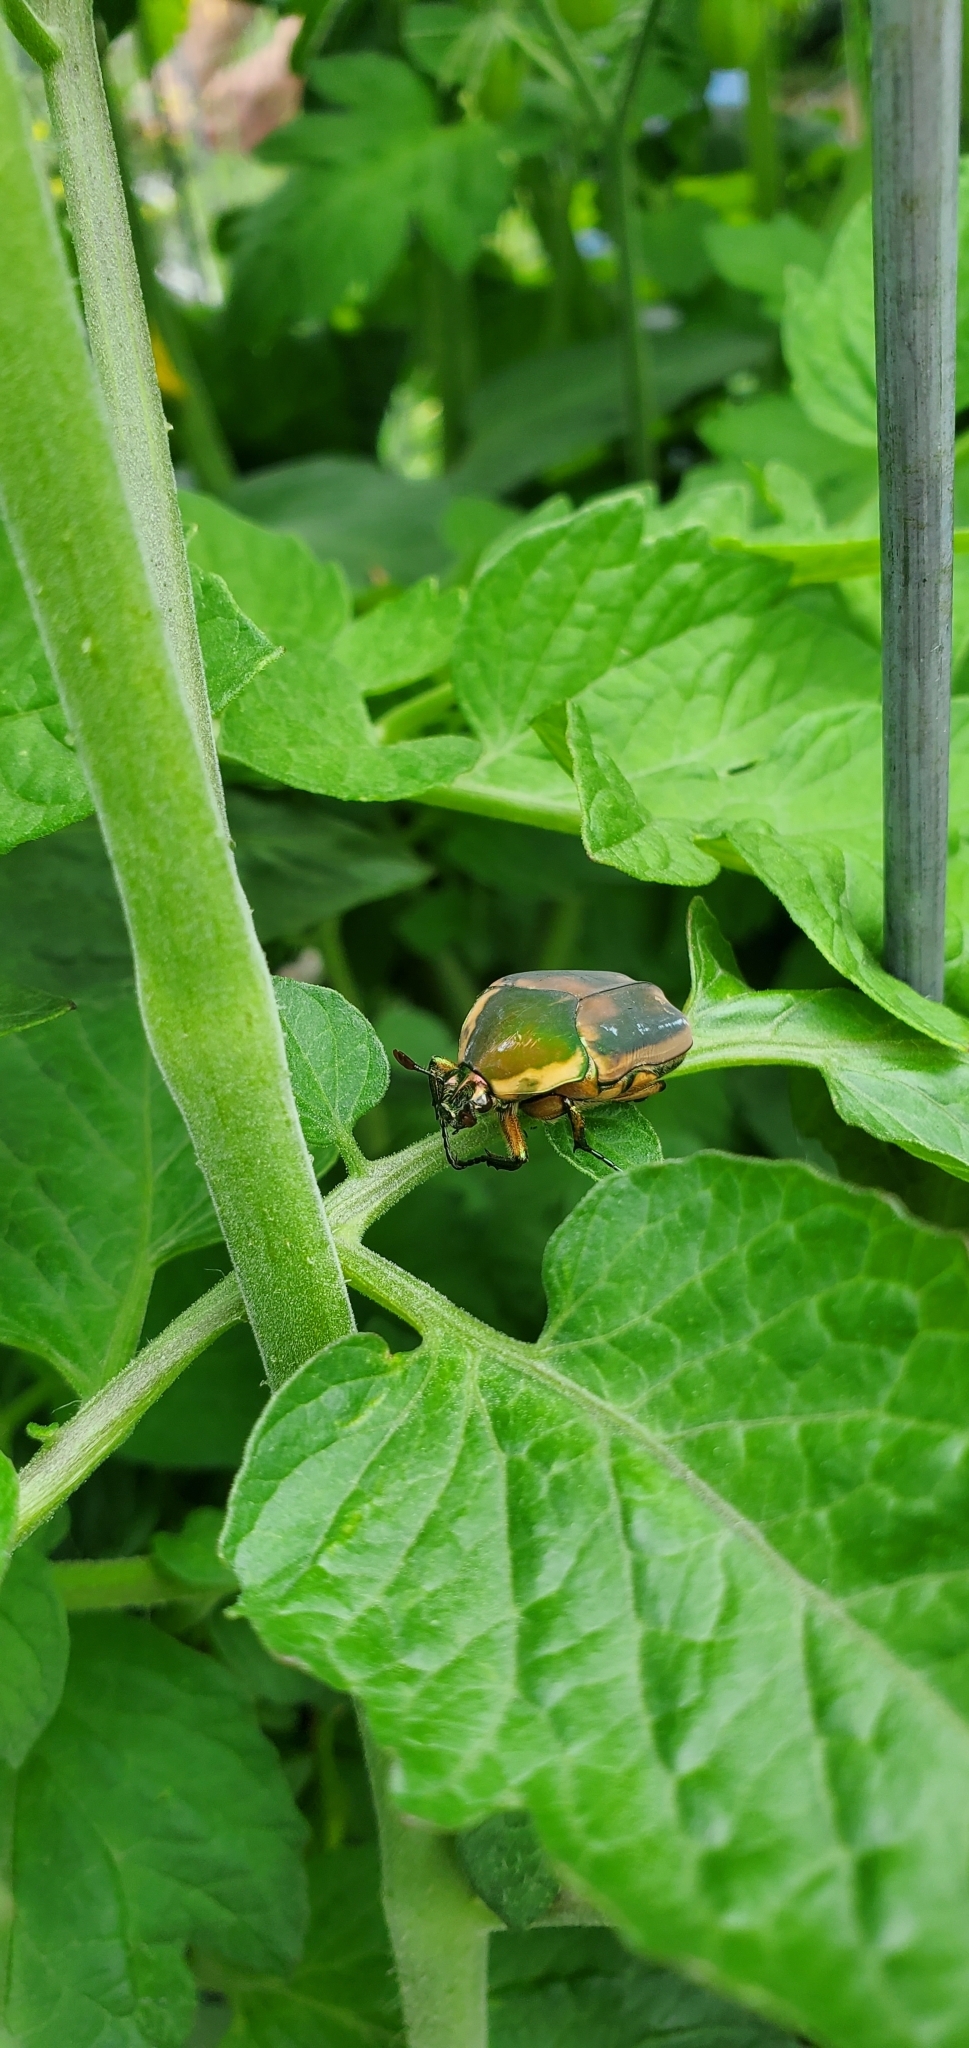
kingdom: Animalia
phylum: Arthropoda
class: Insecta
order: Coleoptera
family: Scarabaeidae
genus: Cotinis
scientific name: Cotinis nitida
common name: Common green june beetle
